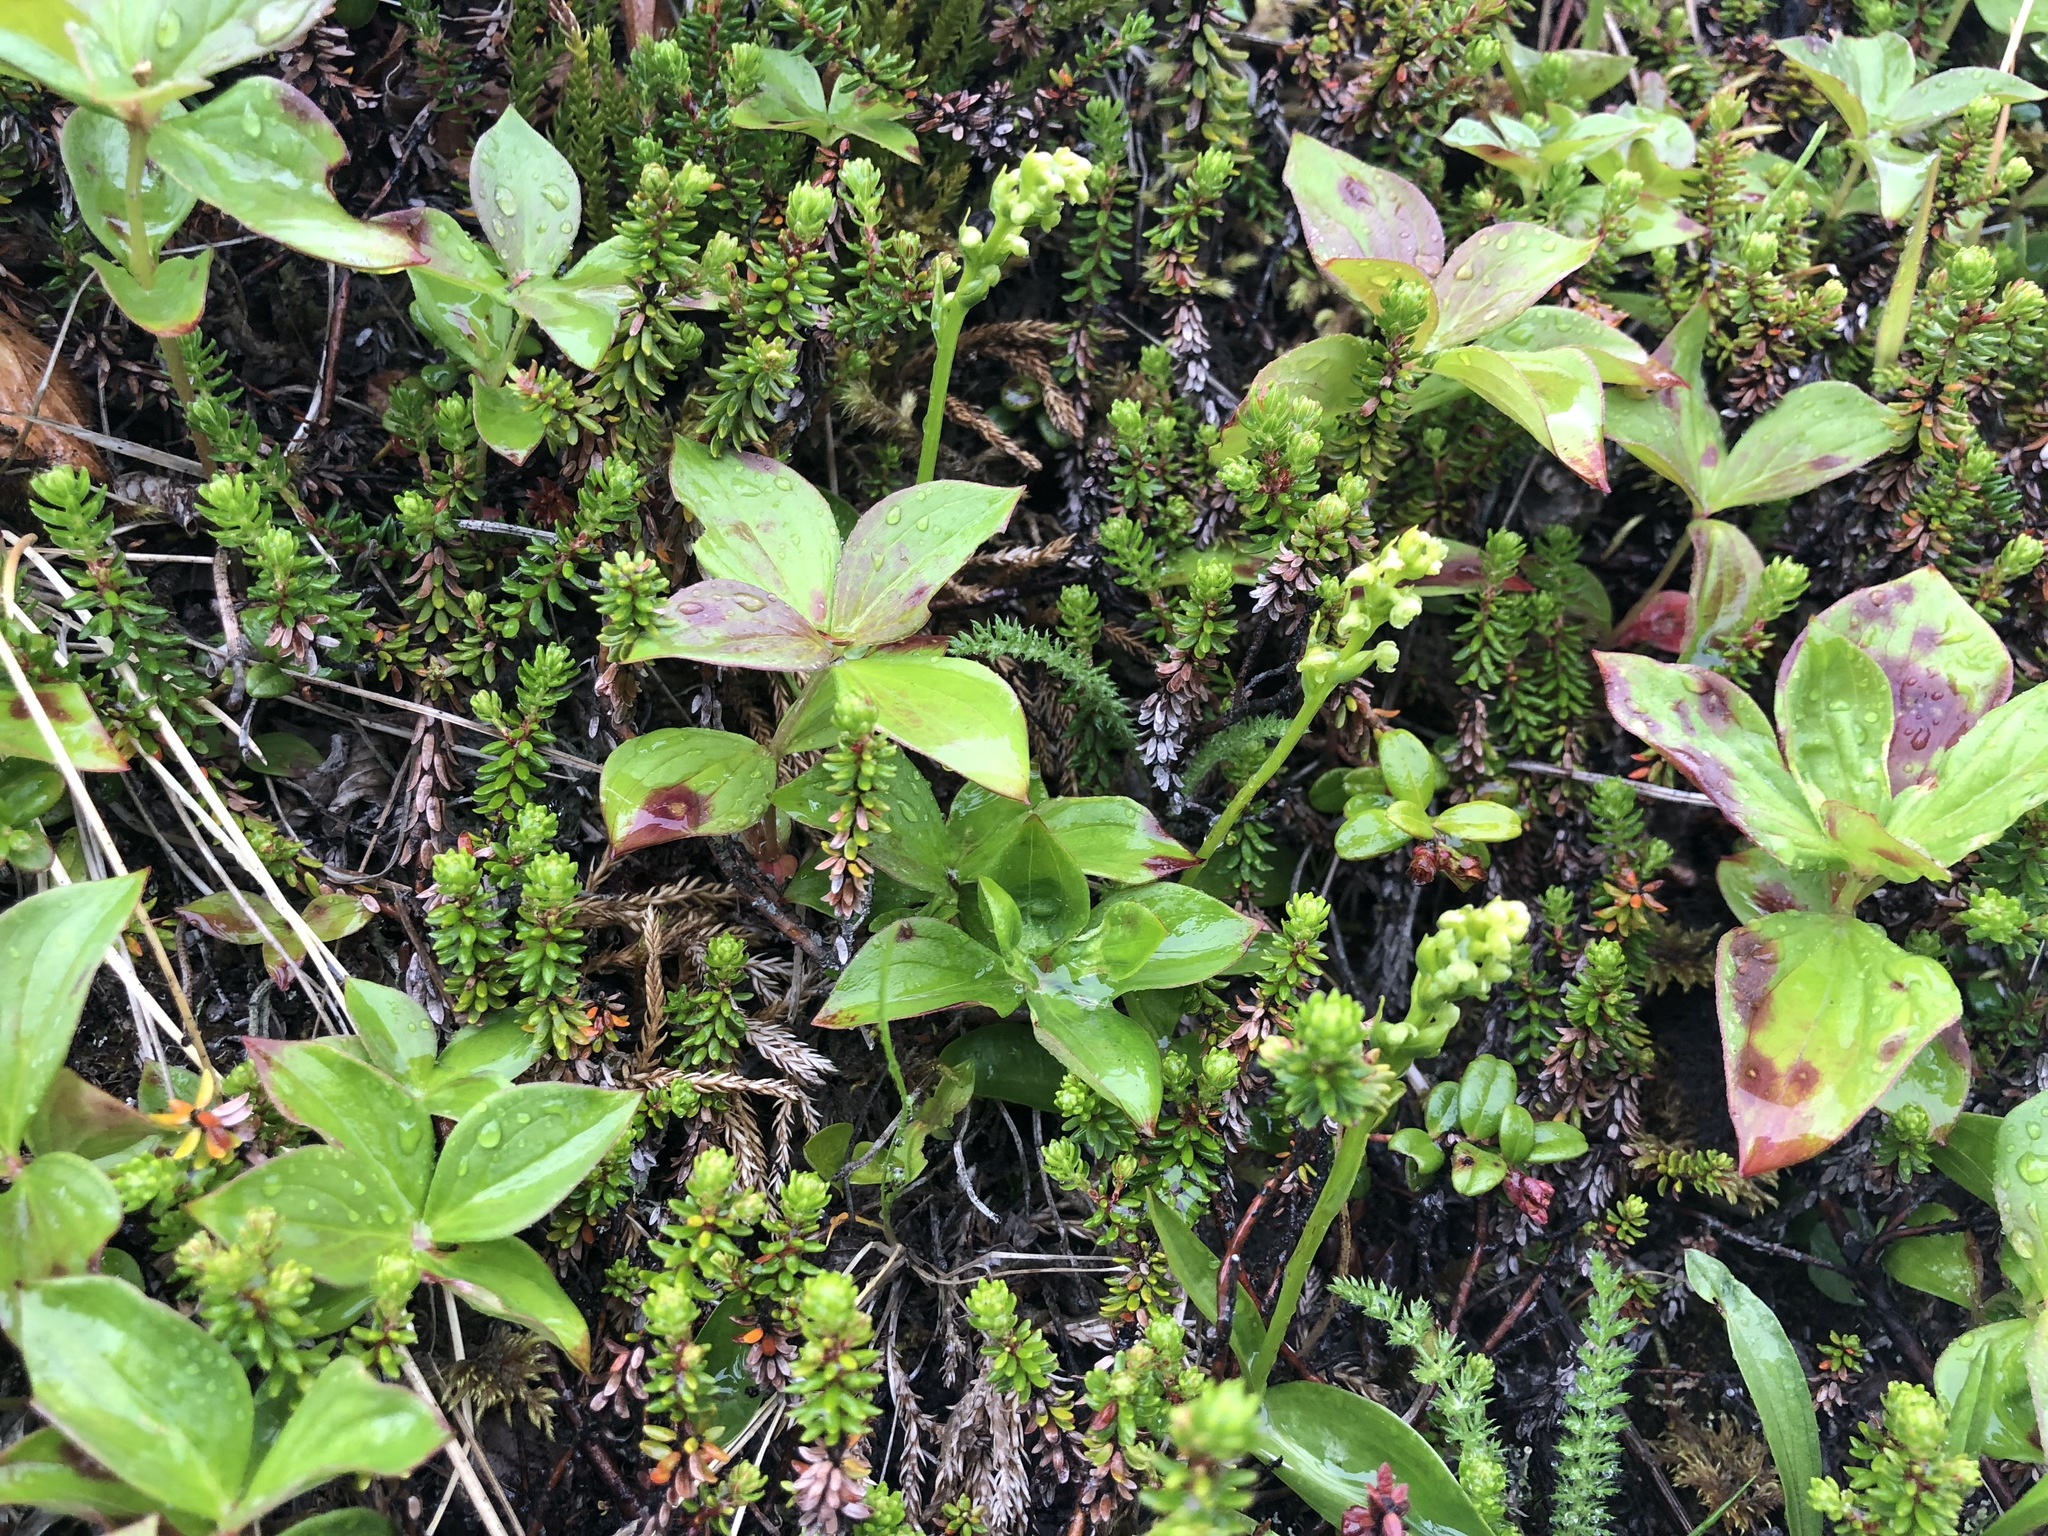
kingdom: Plantae
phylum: Tracheophyta
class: Liliopsida
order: Asparagales
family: Orchidaceae
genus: Platanthera
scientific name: Platanthera chorisiana
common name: Chamisso's orchid
